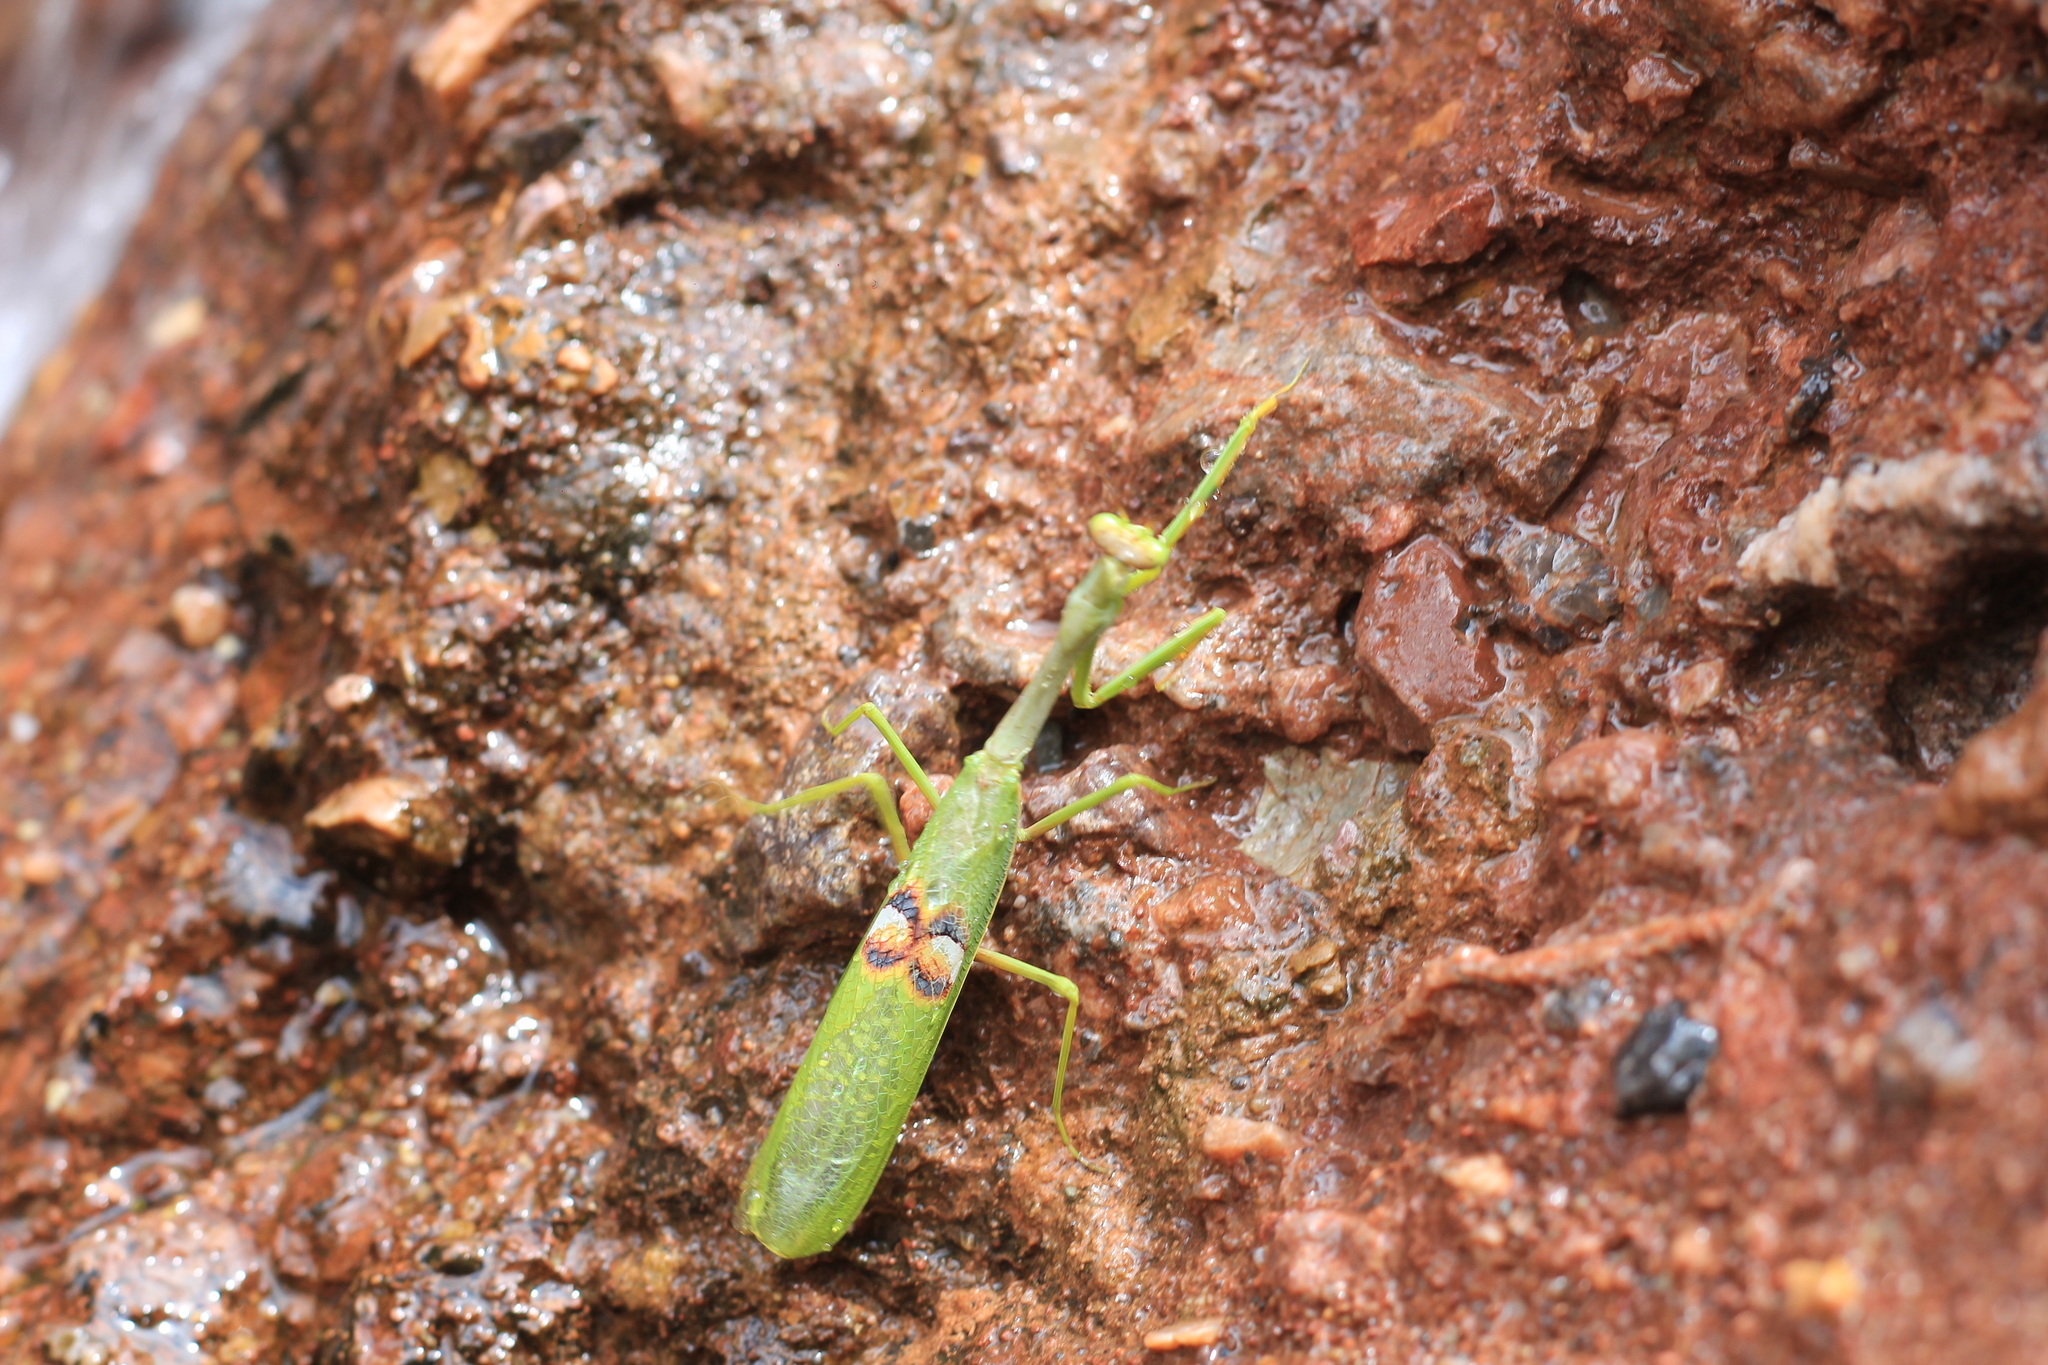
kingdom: Animalia
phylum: Arthropoda
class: Insecta
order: Mantodea
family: Mantidae
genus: Stagmatoptera
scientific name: Stagmatoptera hyaloptera
